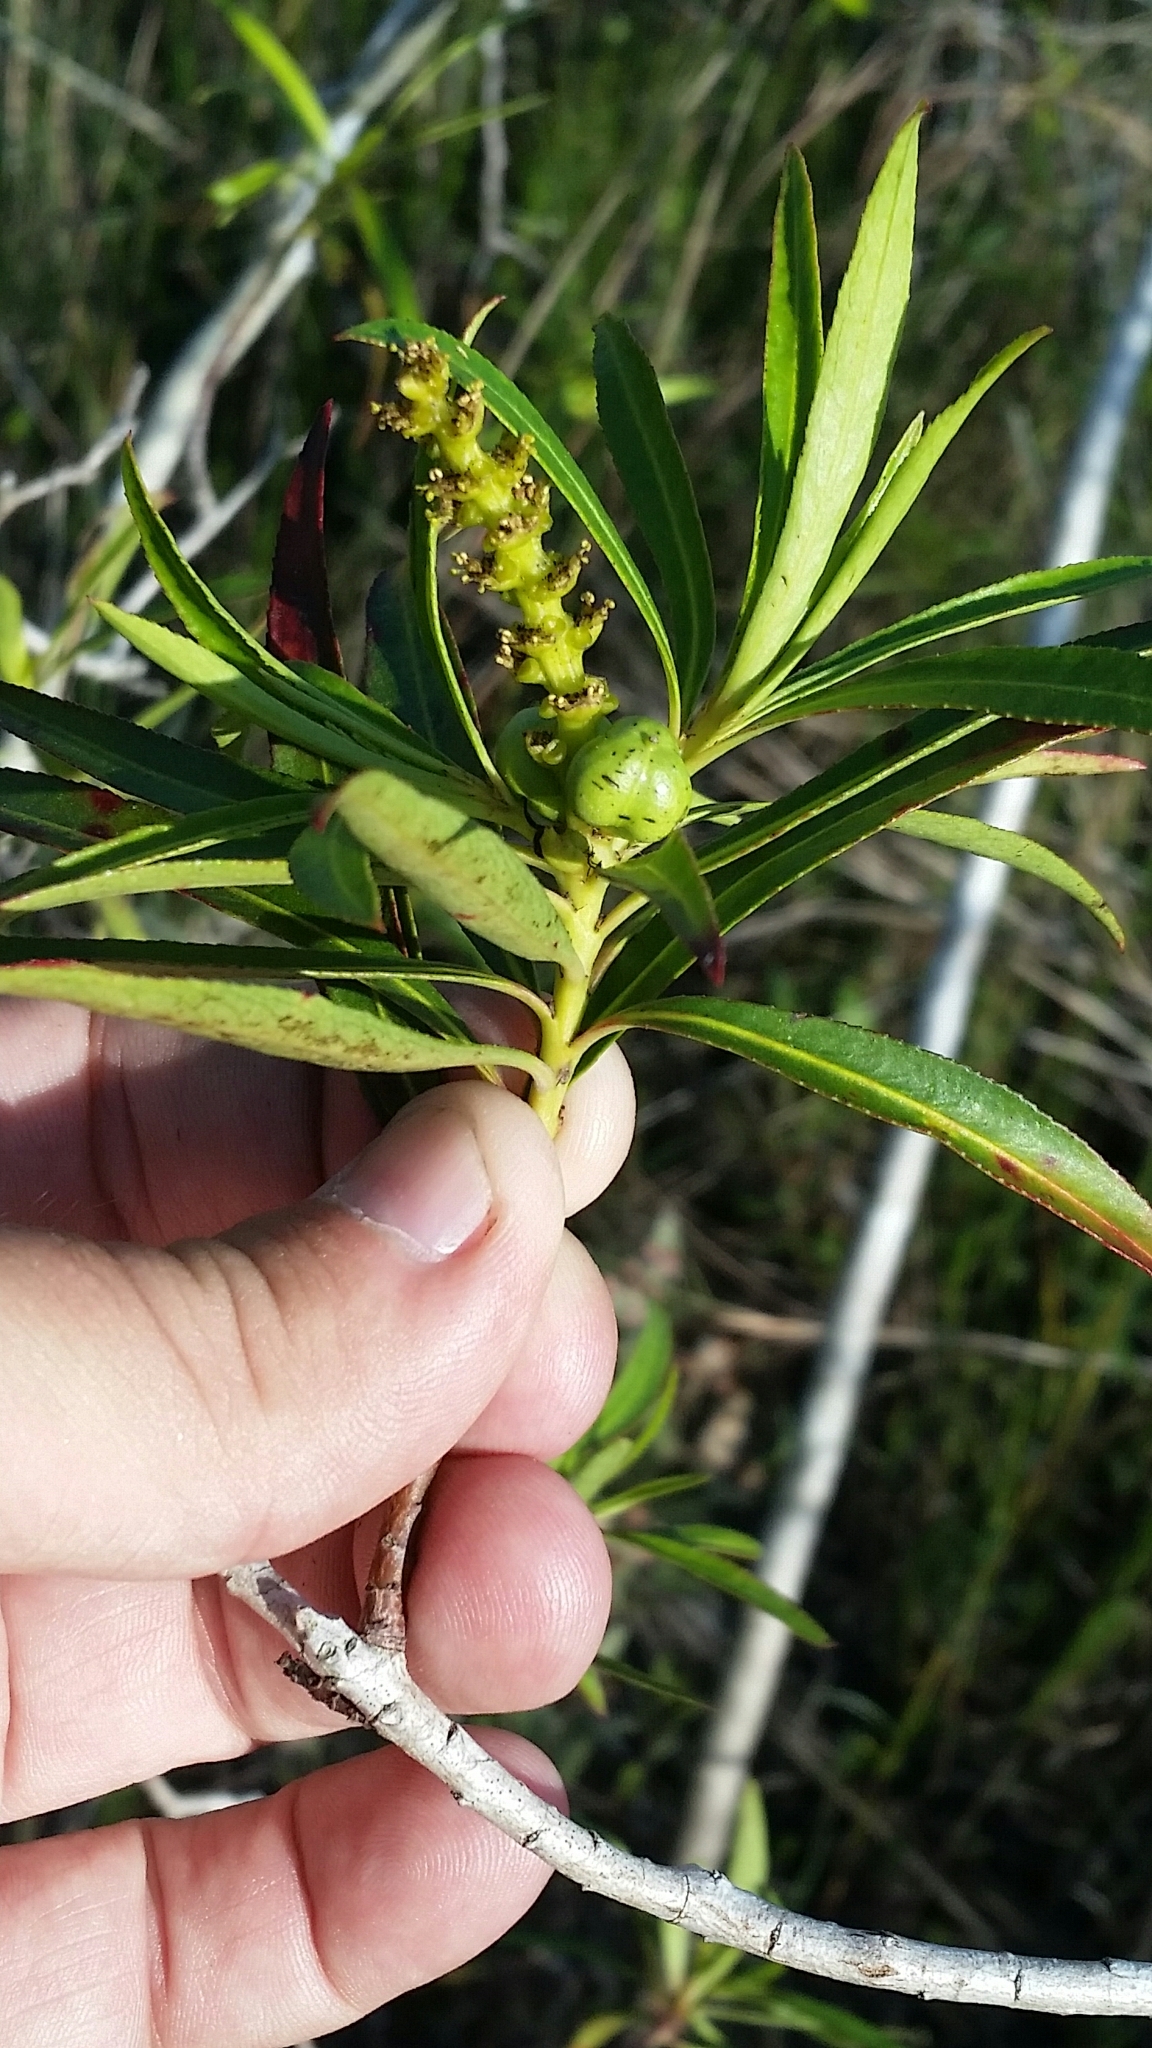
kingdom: Plantae
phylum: Tracheophyta
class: Magnoliopsida
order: Malpighiales
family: Euphorbiaceae
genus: Stillingia
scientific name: Stillingia aquatica
